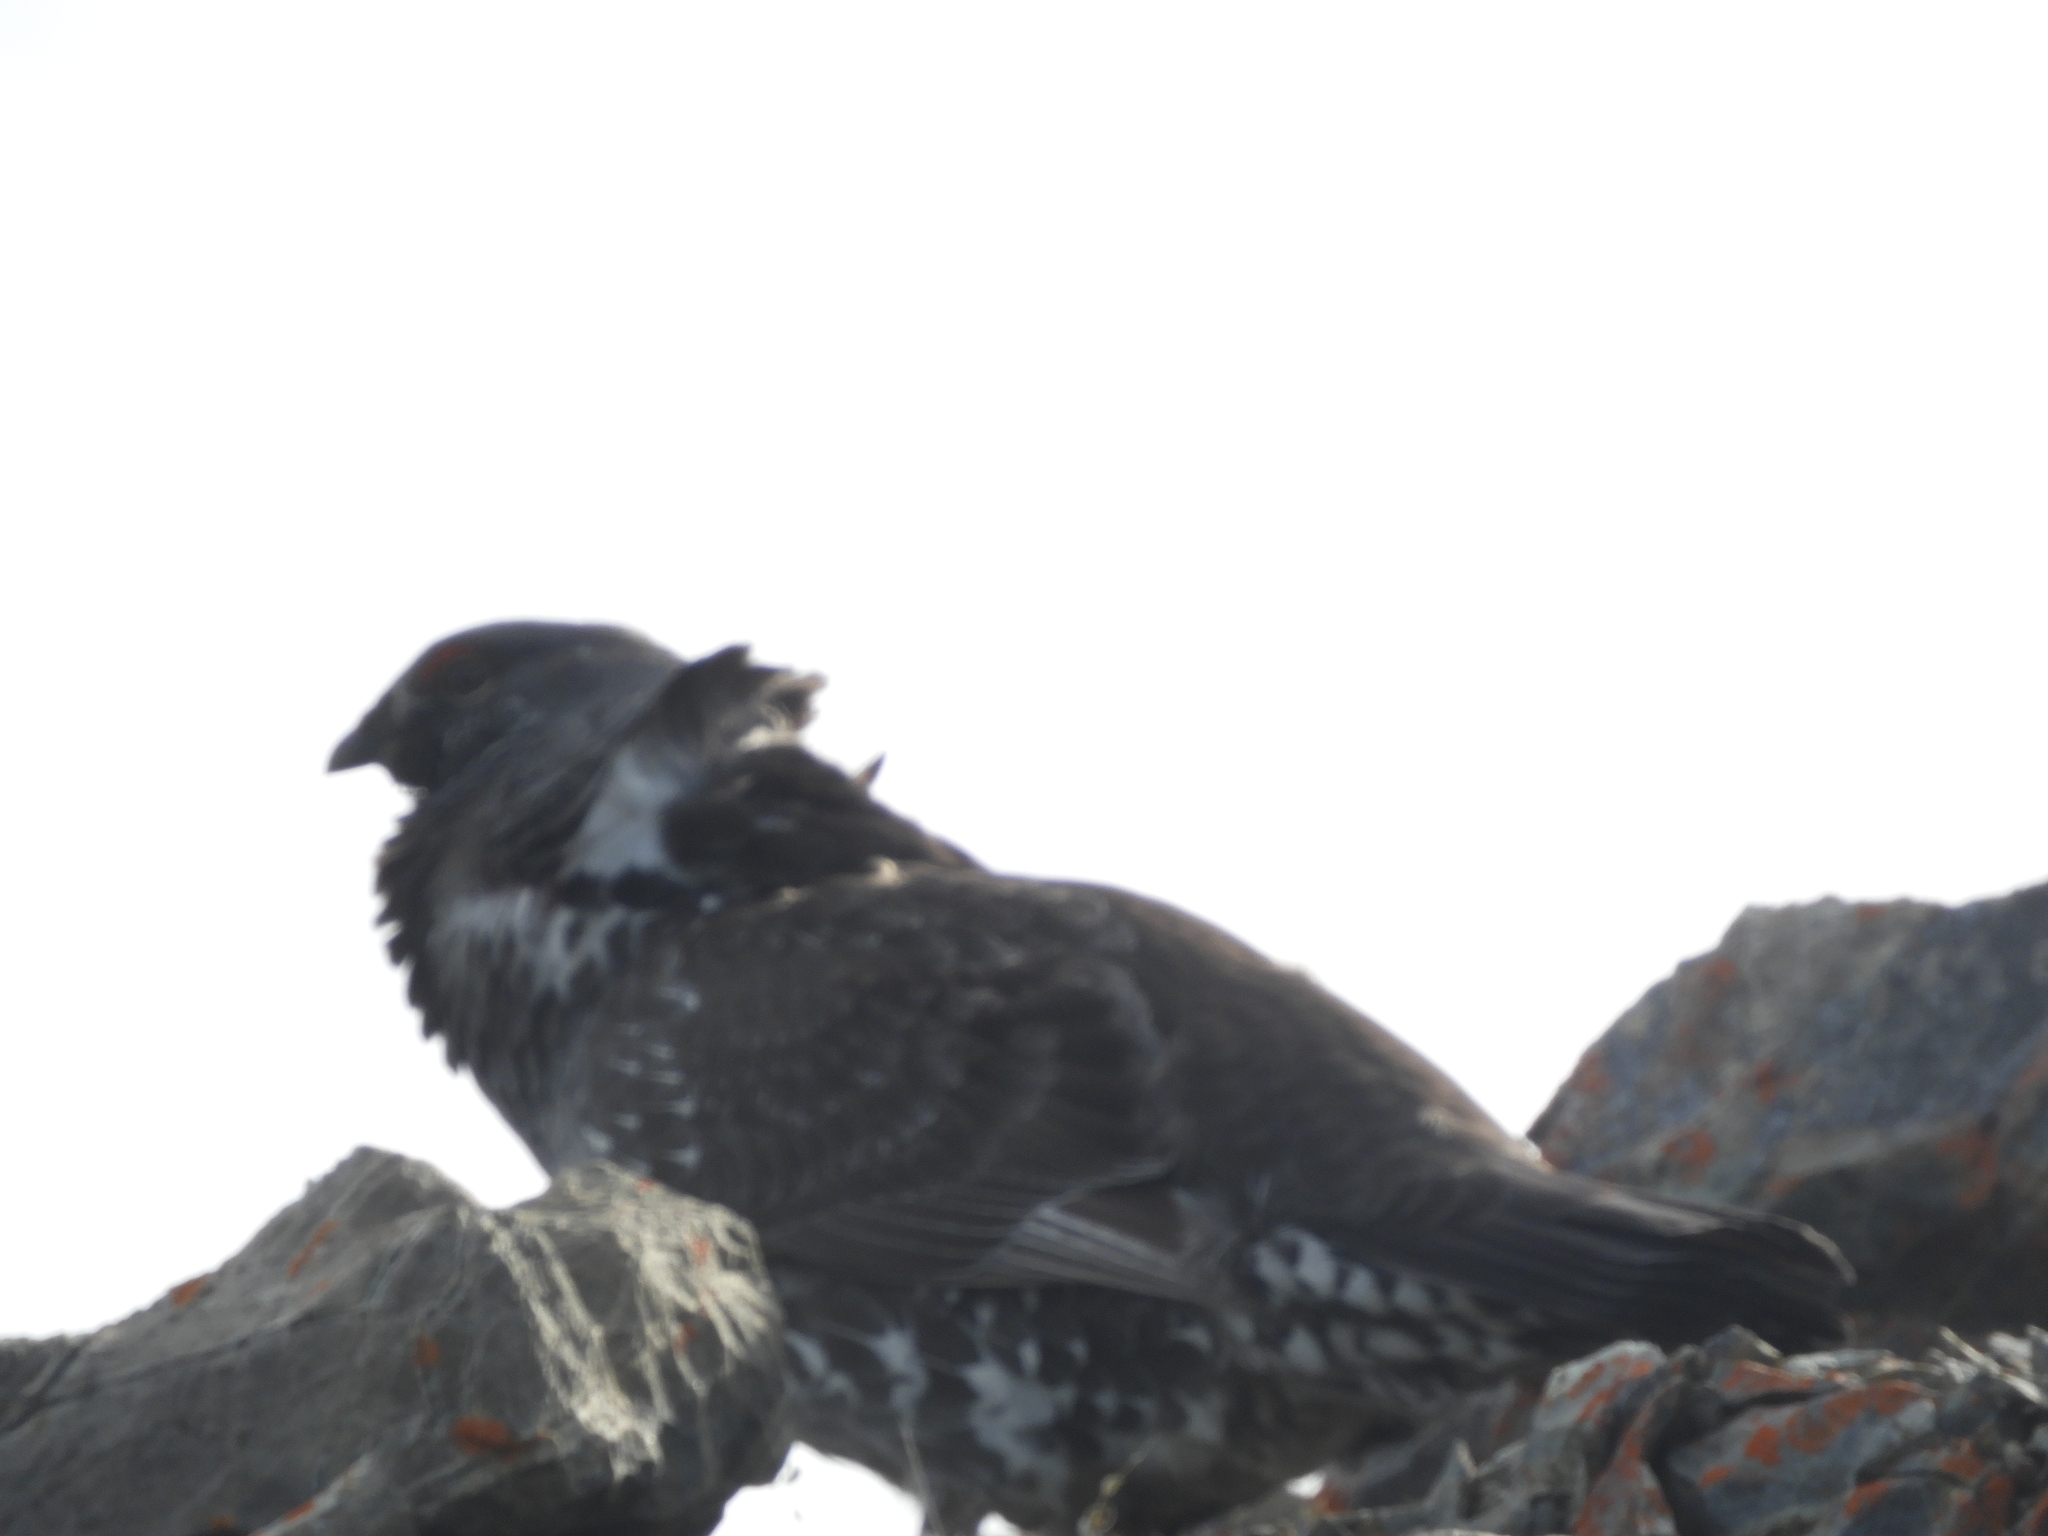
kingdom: Animalia
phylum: Chordata
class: Aves
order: Galliformes
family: Phasianidae
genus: Dendragapus
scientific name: Dendragapus obscurus
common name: Dusky grouse
